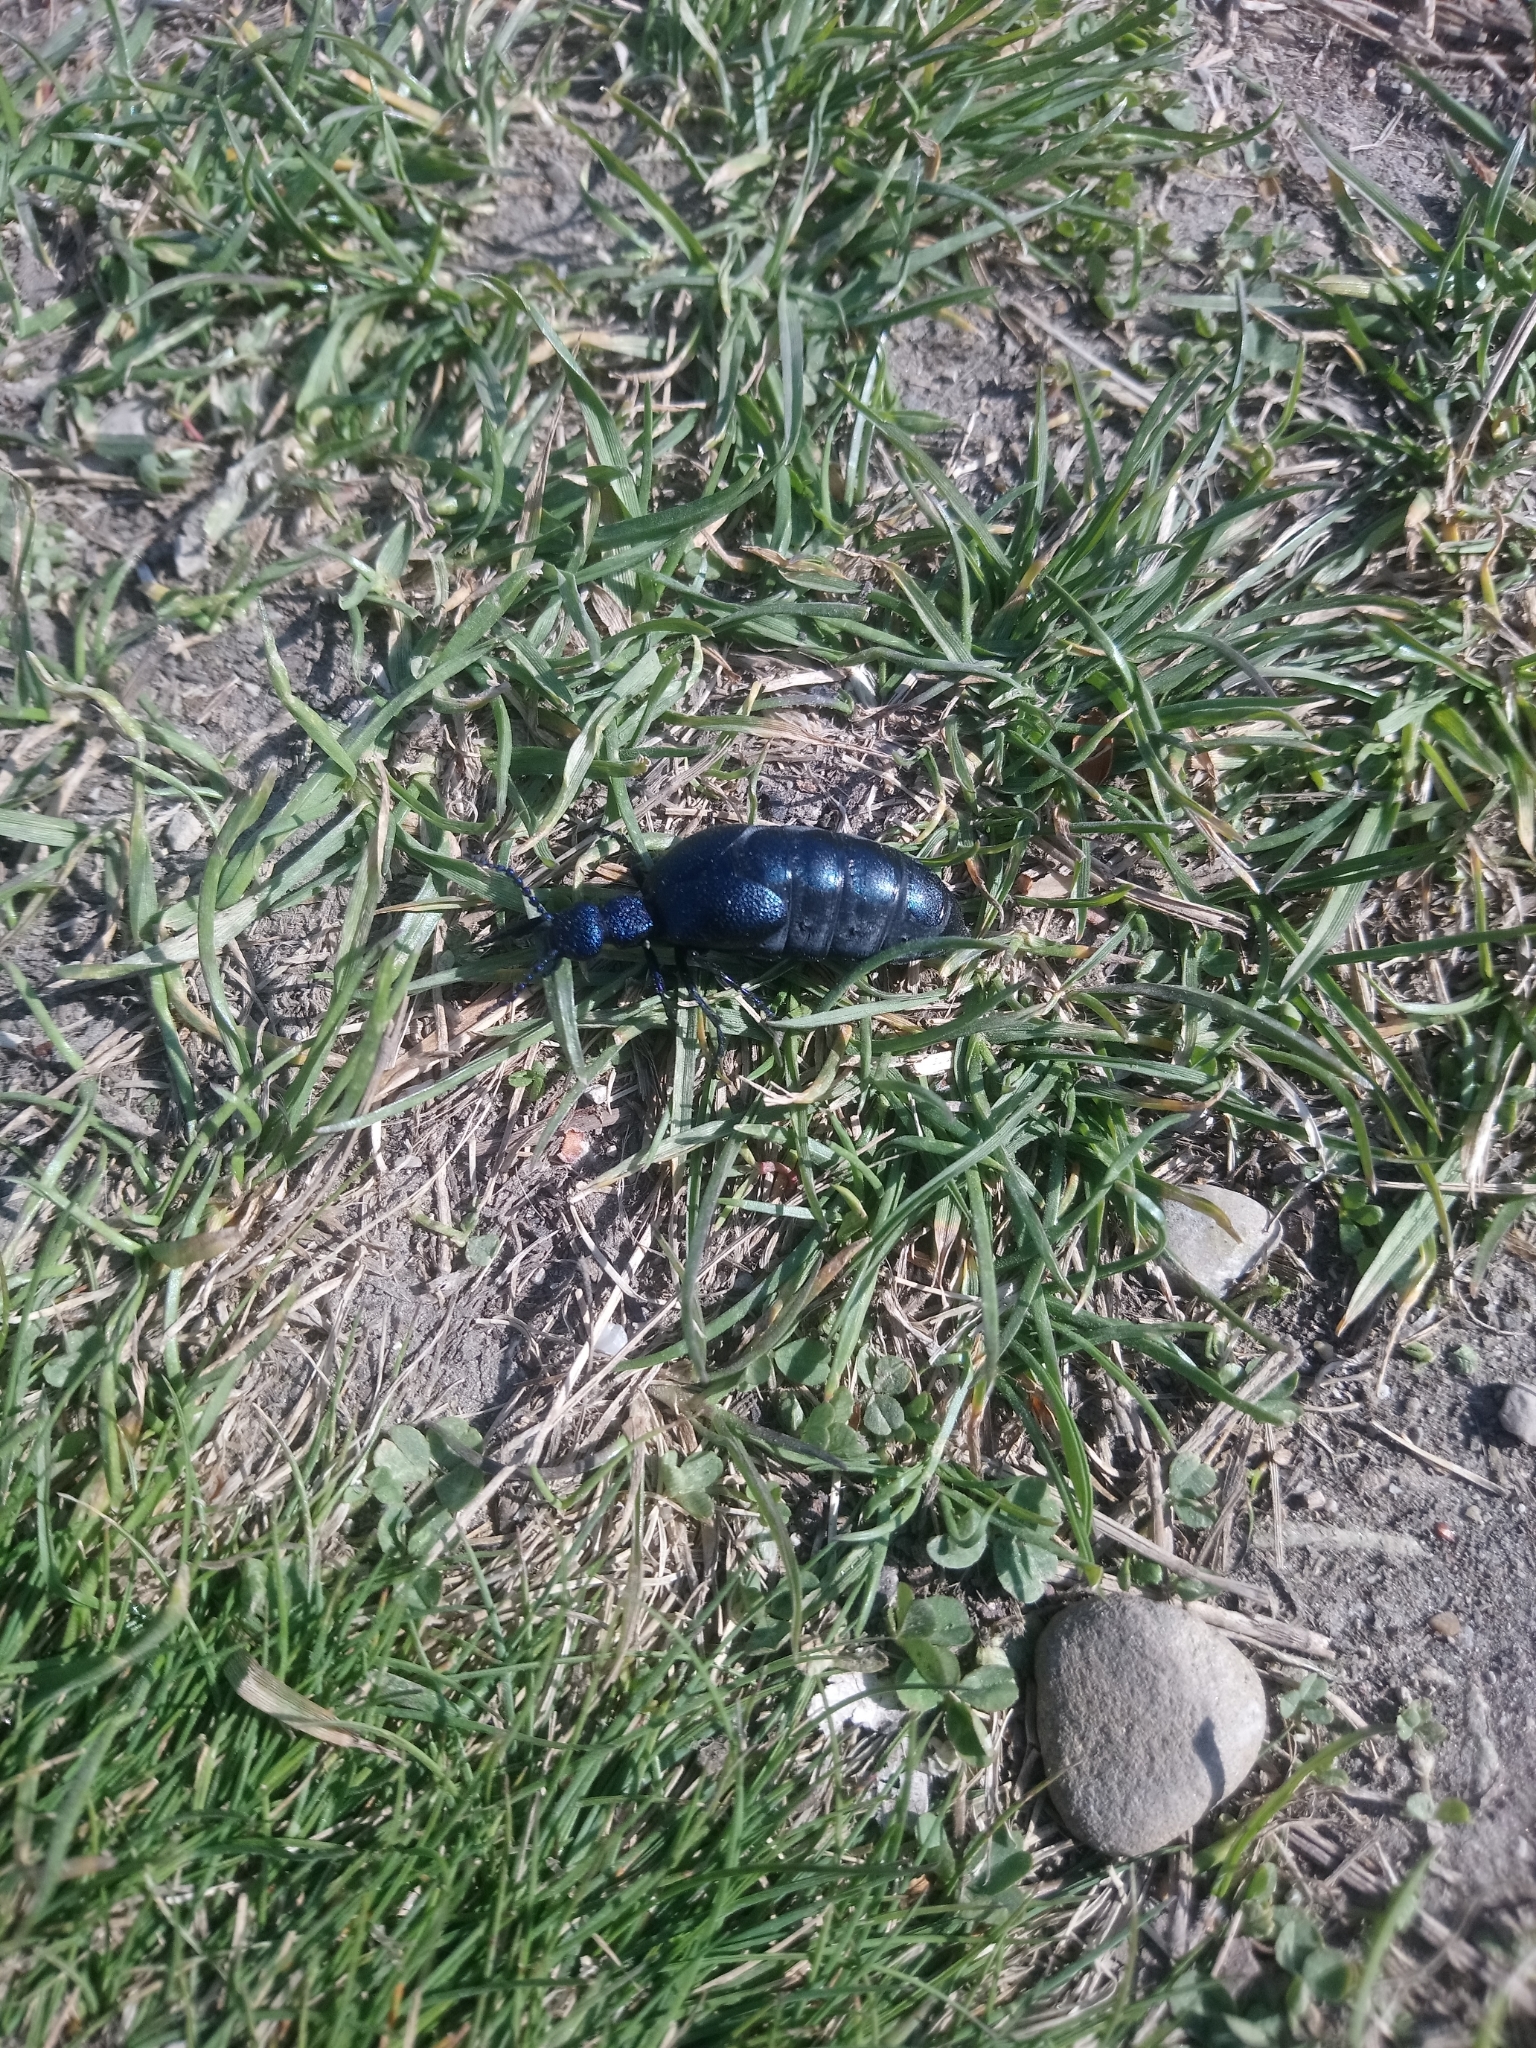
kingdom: Animalia
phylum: Arthropoda
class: Insecta
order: Coleoptera
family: Meloidae
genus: Meloe
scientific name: Meloe proscarabaeus
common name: Black oil-beetle
